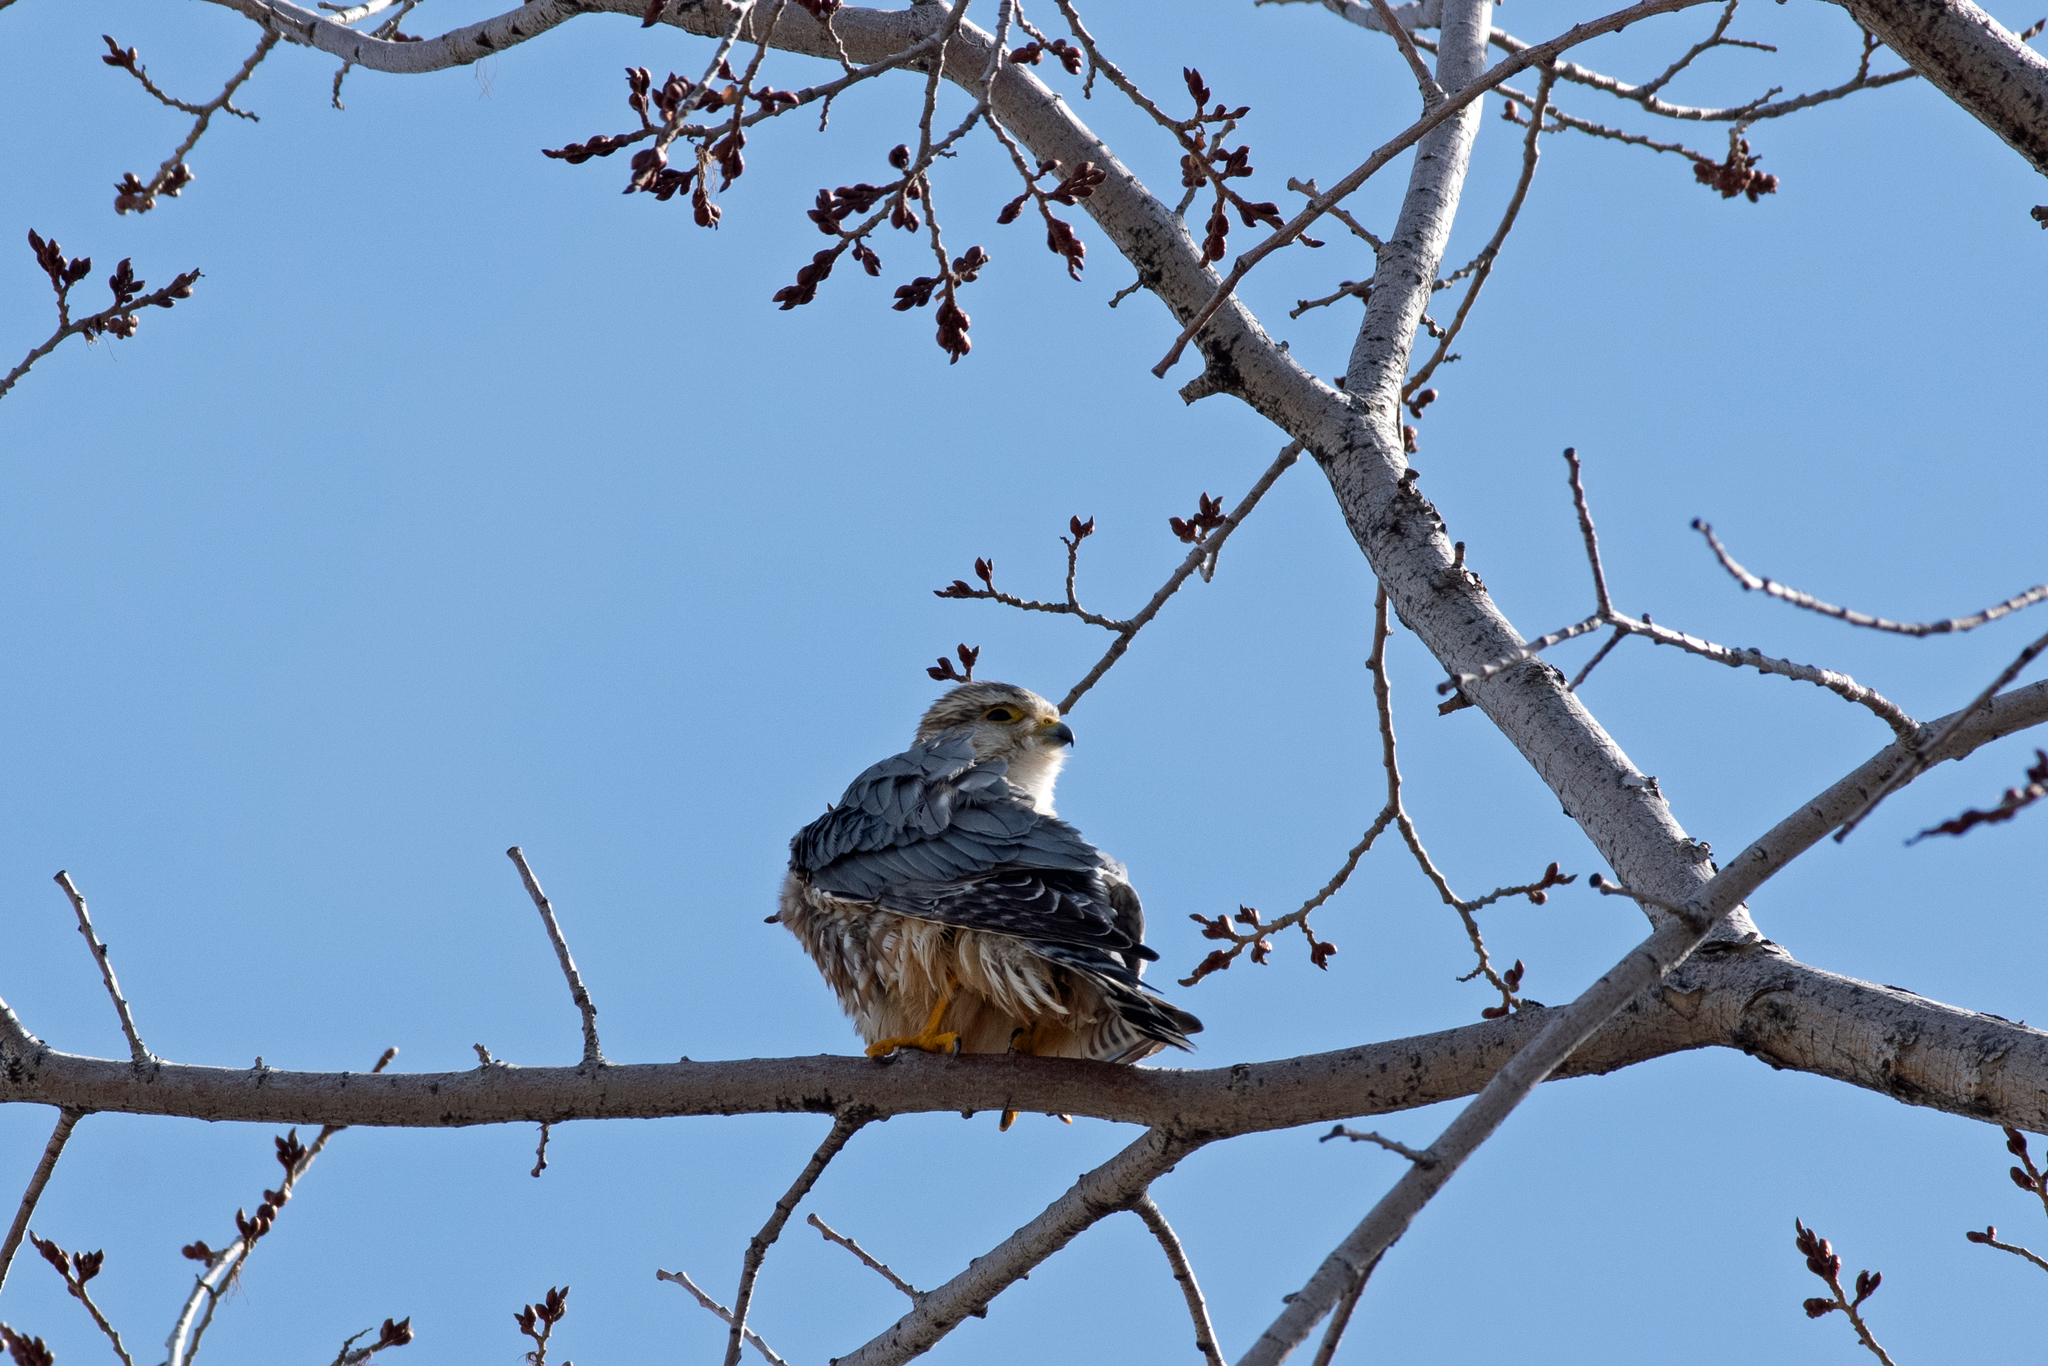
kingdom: Animalia
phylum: Chordata
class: Aves
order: Falconiformes
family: Falconidae
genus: Falco
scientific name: Falco columbarius
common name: Merlin
